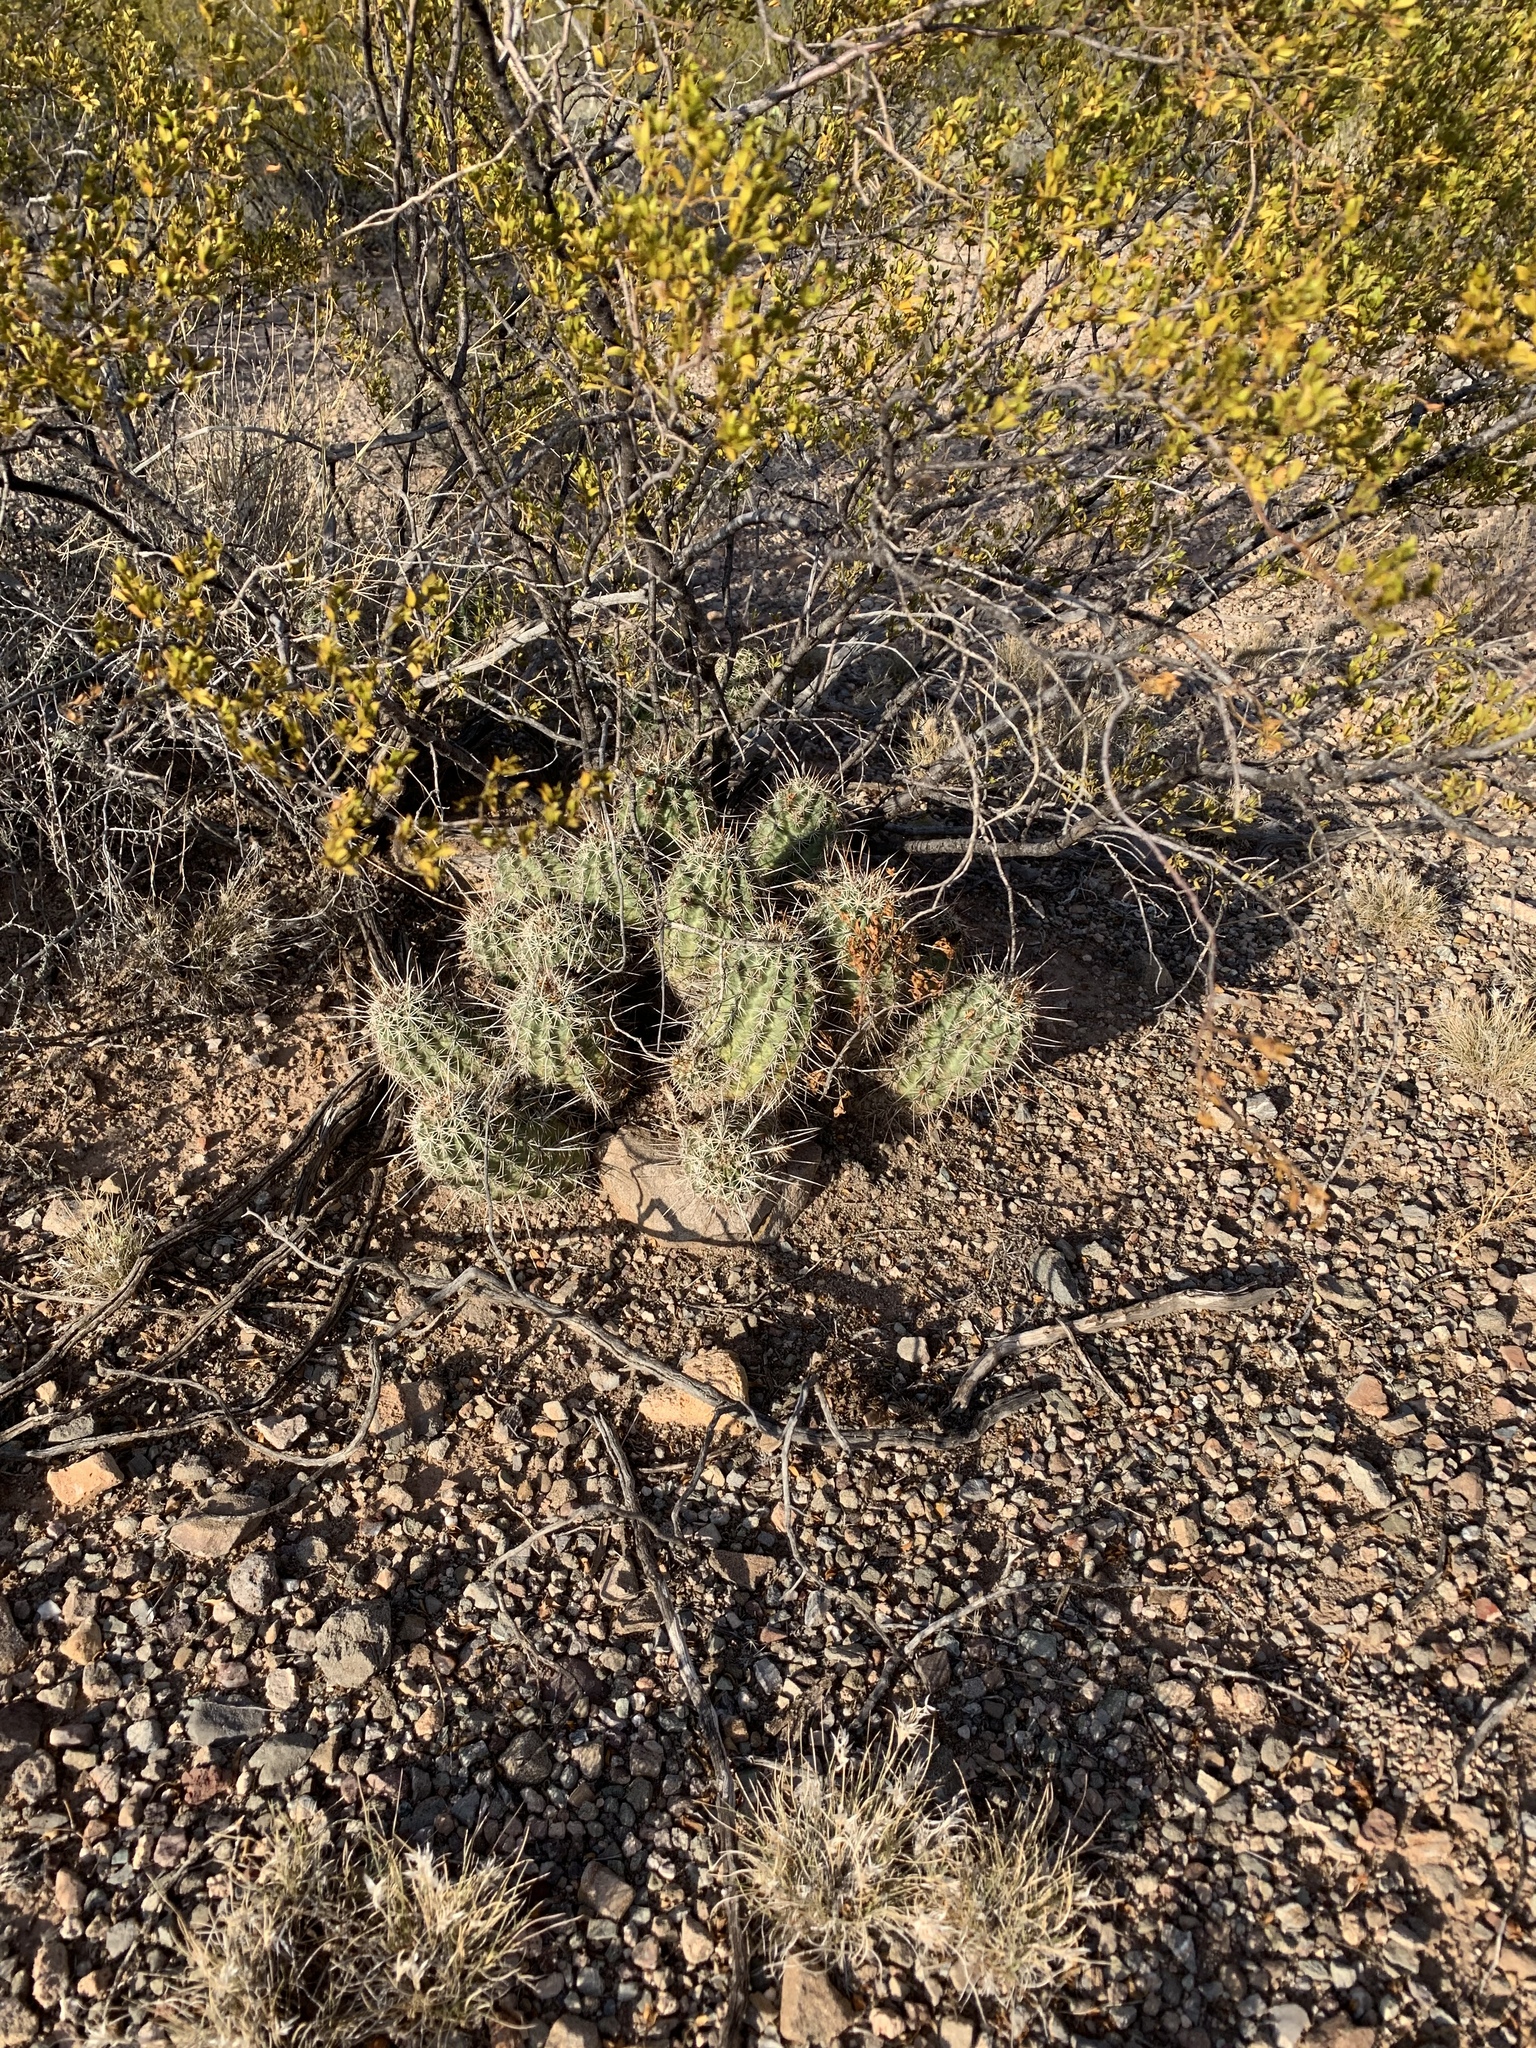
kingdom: Plantae
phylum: Tracheophyta
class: Magnoliopsida
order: Caryophyllales
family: Cactaceae
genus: Echinocereus
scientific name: Echinocereus fasciculatus
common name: Bundle hedgehog
